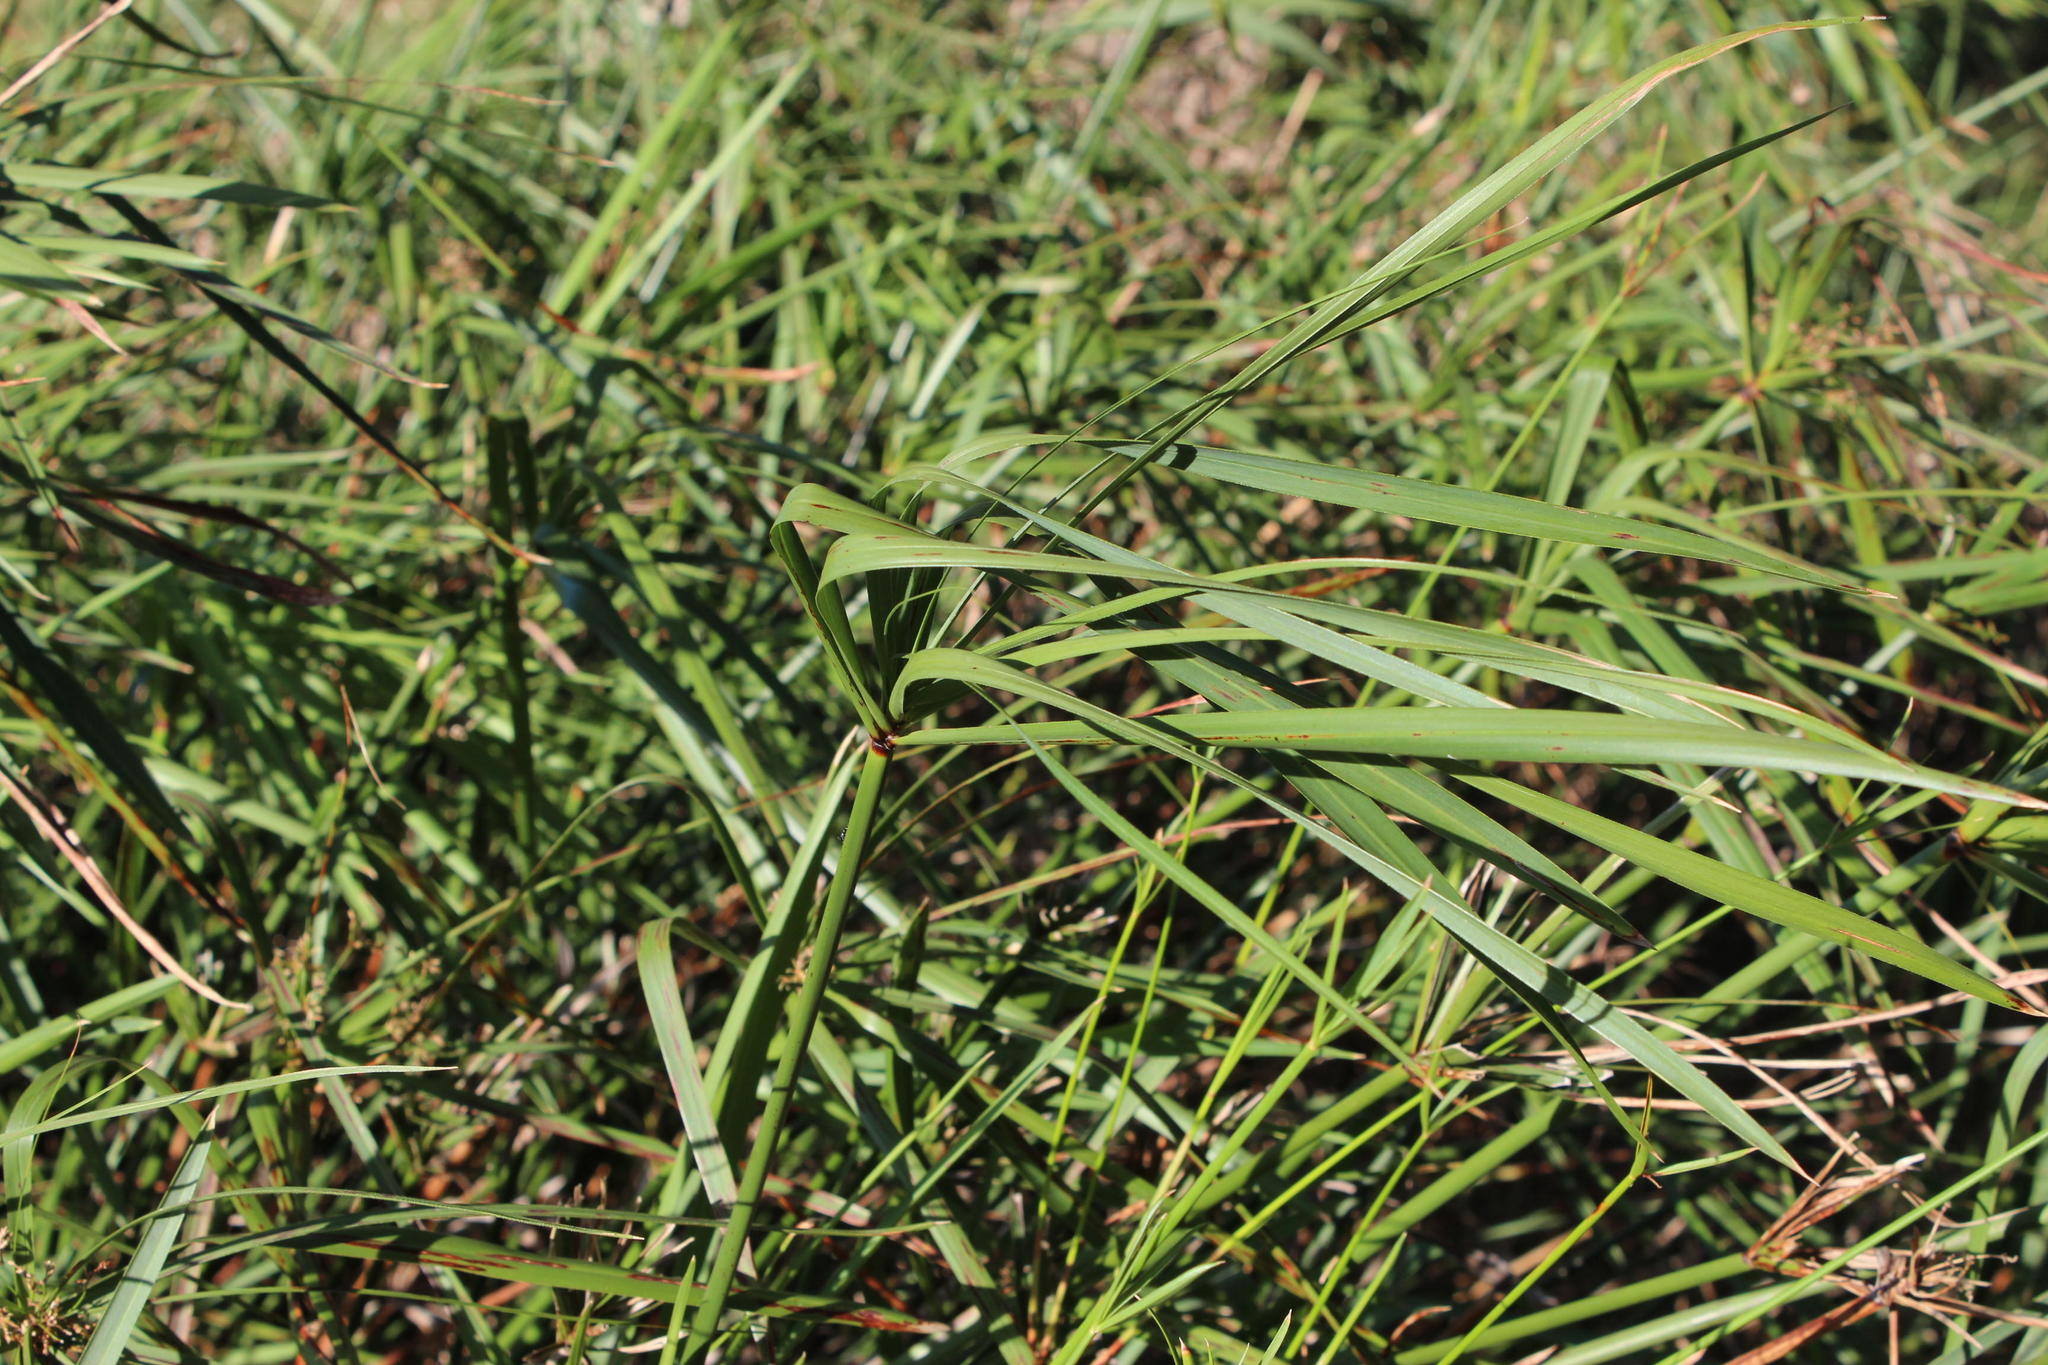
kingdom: Plantae
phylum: Tracheophyta
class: Liliopsida
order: Poales
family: Cyperaceae
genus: Cyperus
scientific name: Cyperus textilis
